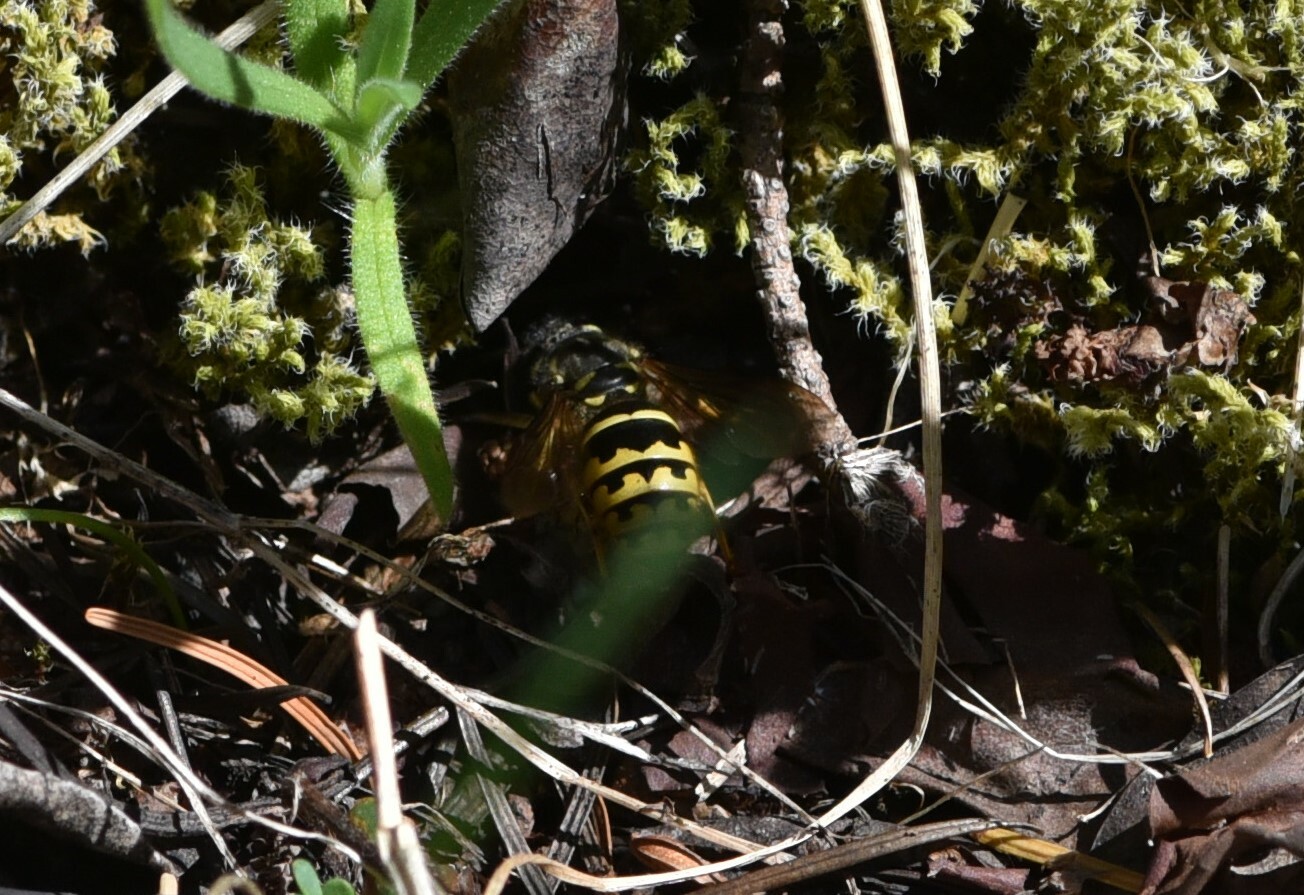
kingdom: Animalia
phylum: Arthropoda
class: Insecta
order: Hymenoptera
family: Vespidae
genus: Vespula
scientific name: Vespula alascensis
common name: Alaska yellowjacket
